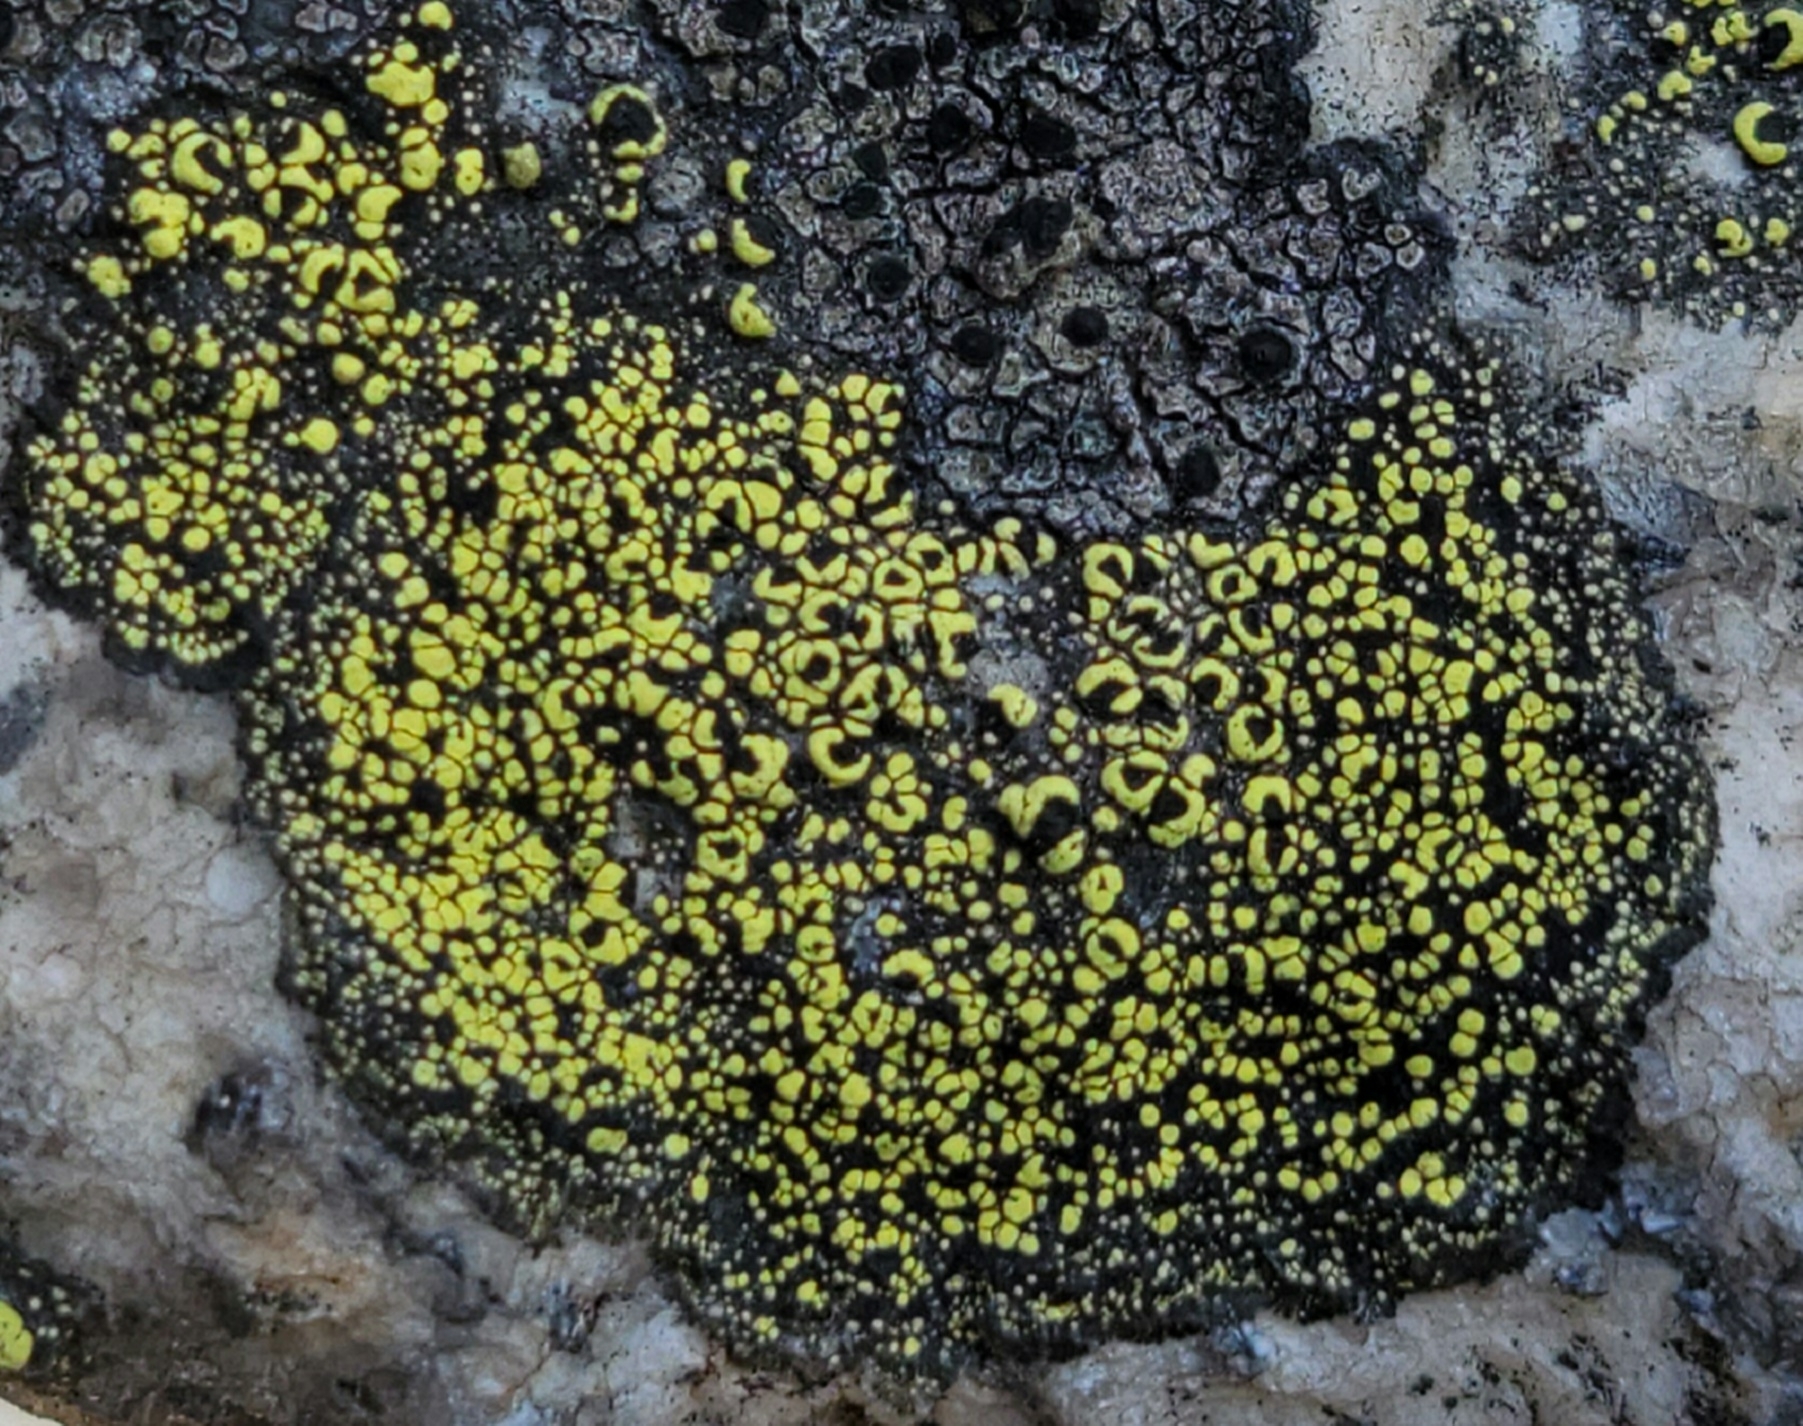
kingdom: Fungi
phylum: Ascomycota
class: Lecanoromycetes
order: Rhizocarpales
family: Rhizocarpaceae
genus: Rhizocarpon
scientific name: Rhizocarpon geographicum
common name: Yellow map lichen
